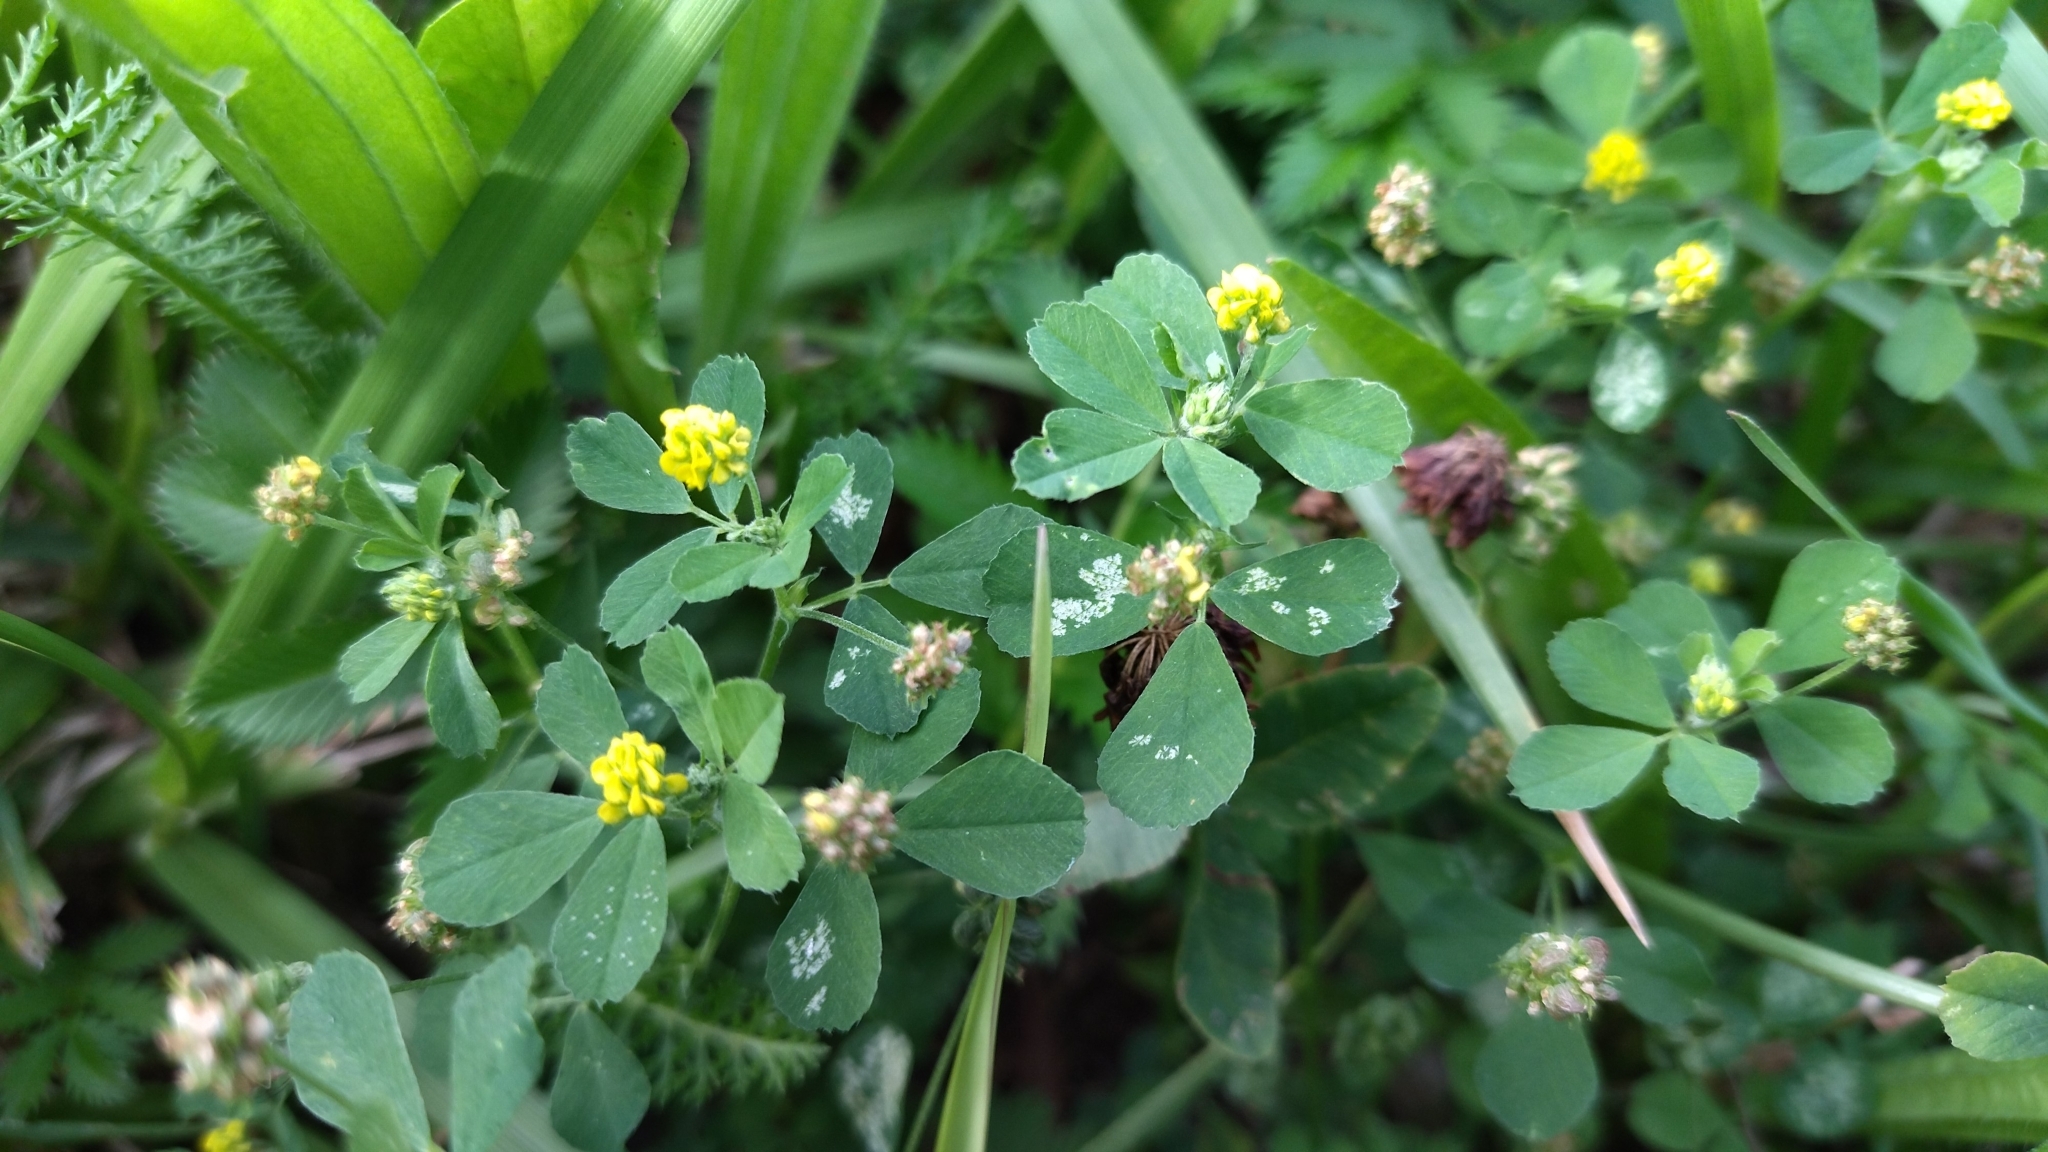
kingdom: Plantae
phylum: Tracheophyta
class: Magnoliopsida
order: Fabales
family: Fabaceae
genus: Medicago
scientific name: Medicago lupulina
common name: Black medick
